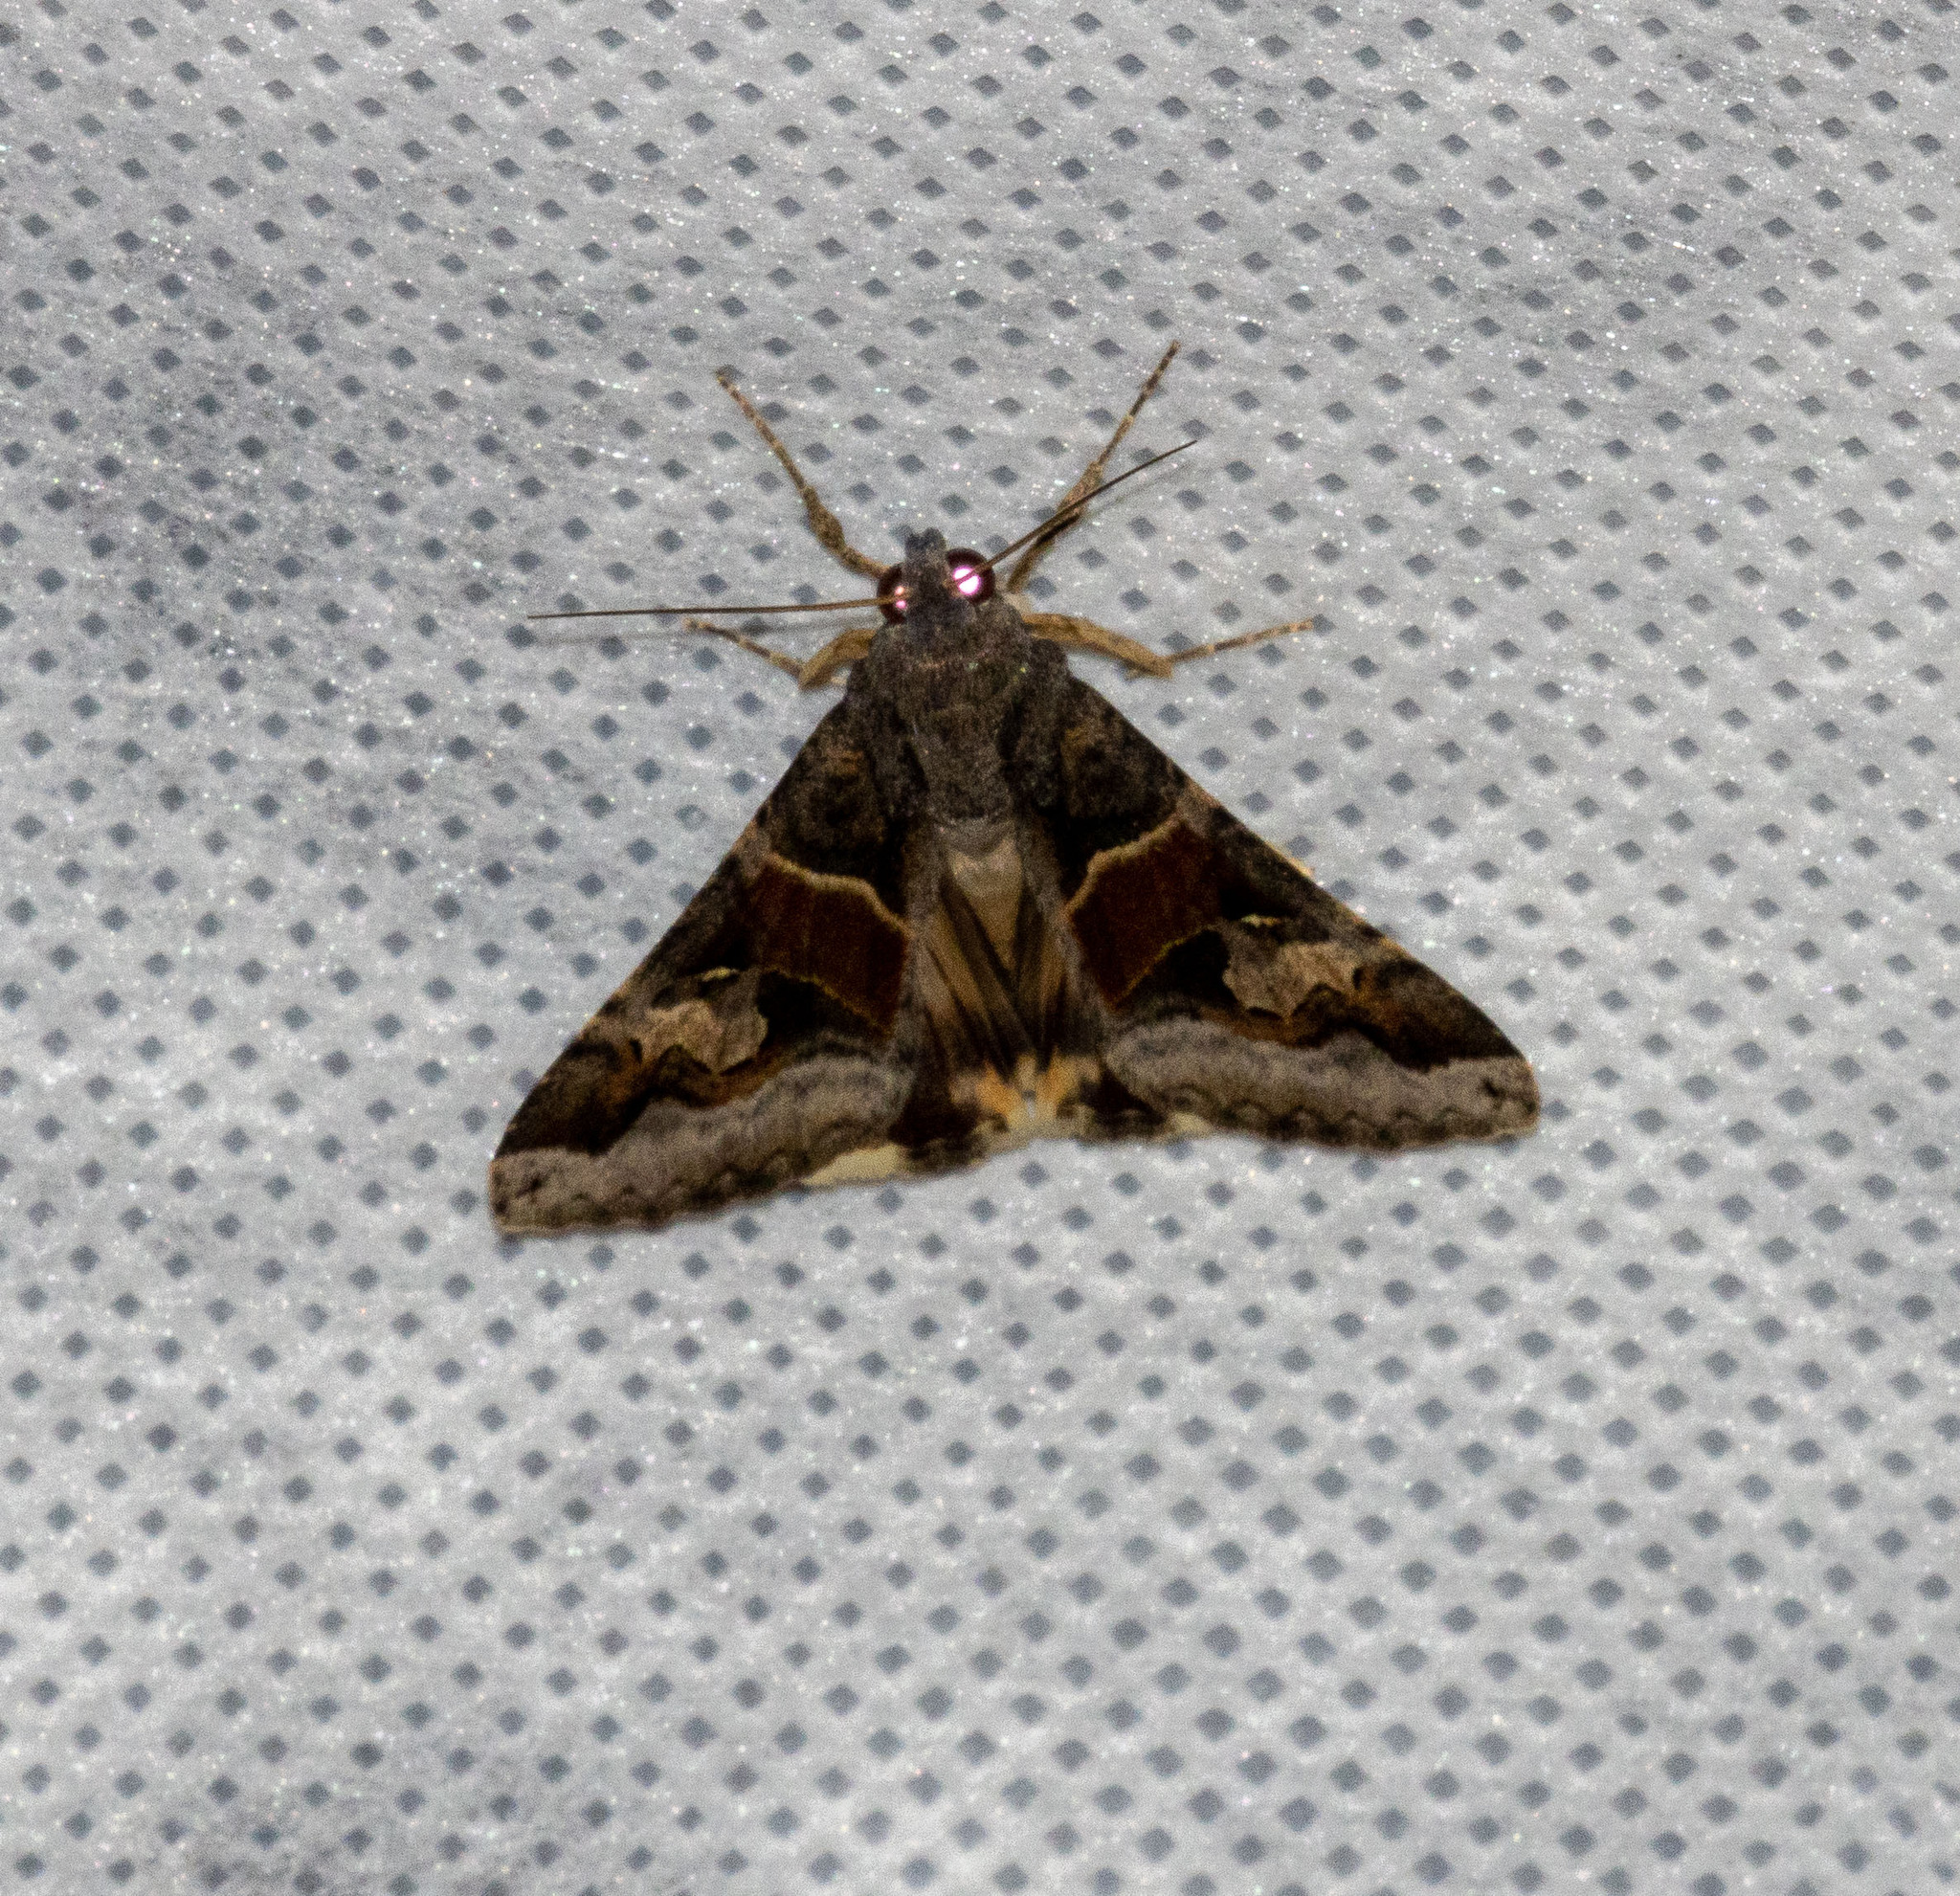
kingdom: Animalia
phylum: Arthropoda
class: Insecta
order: Lepidoptera
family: Erebidae
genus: Melipotis
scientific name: Melipotis ochrodes
